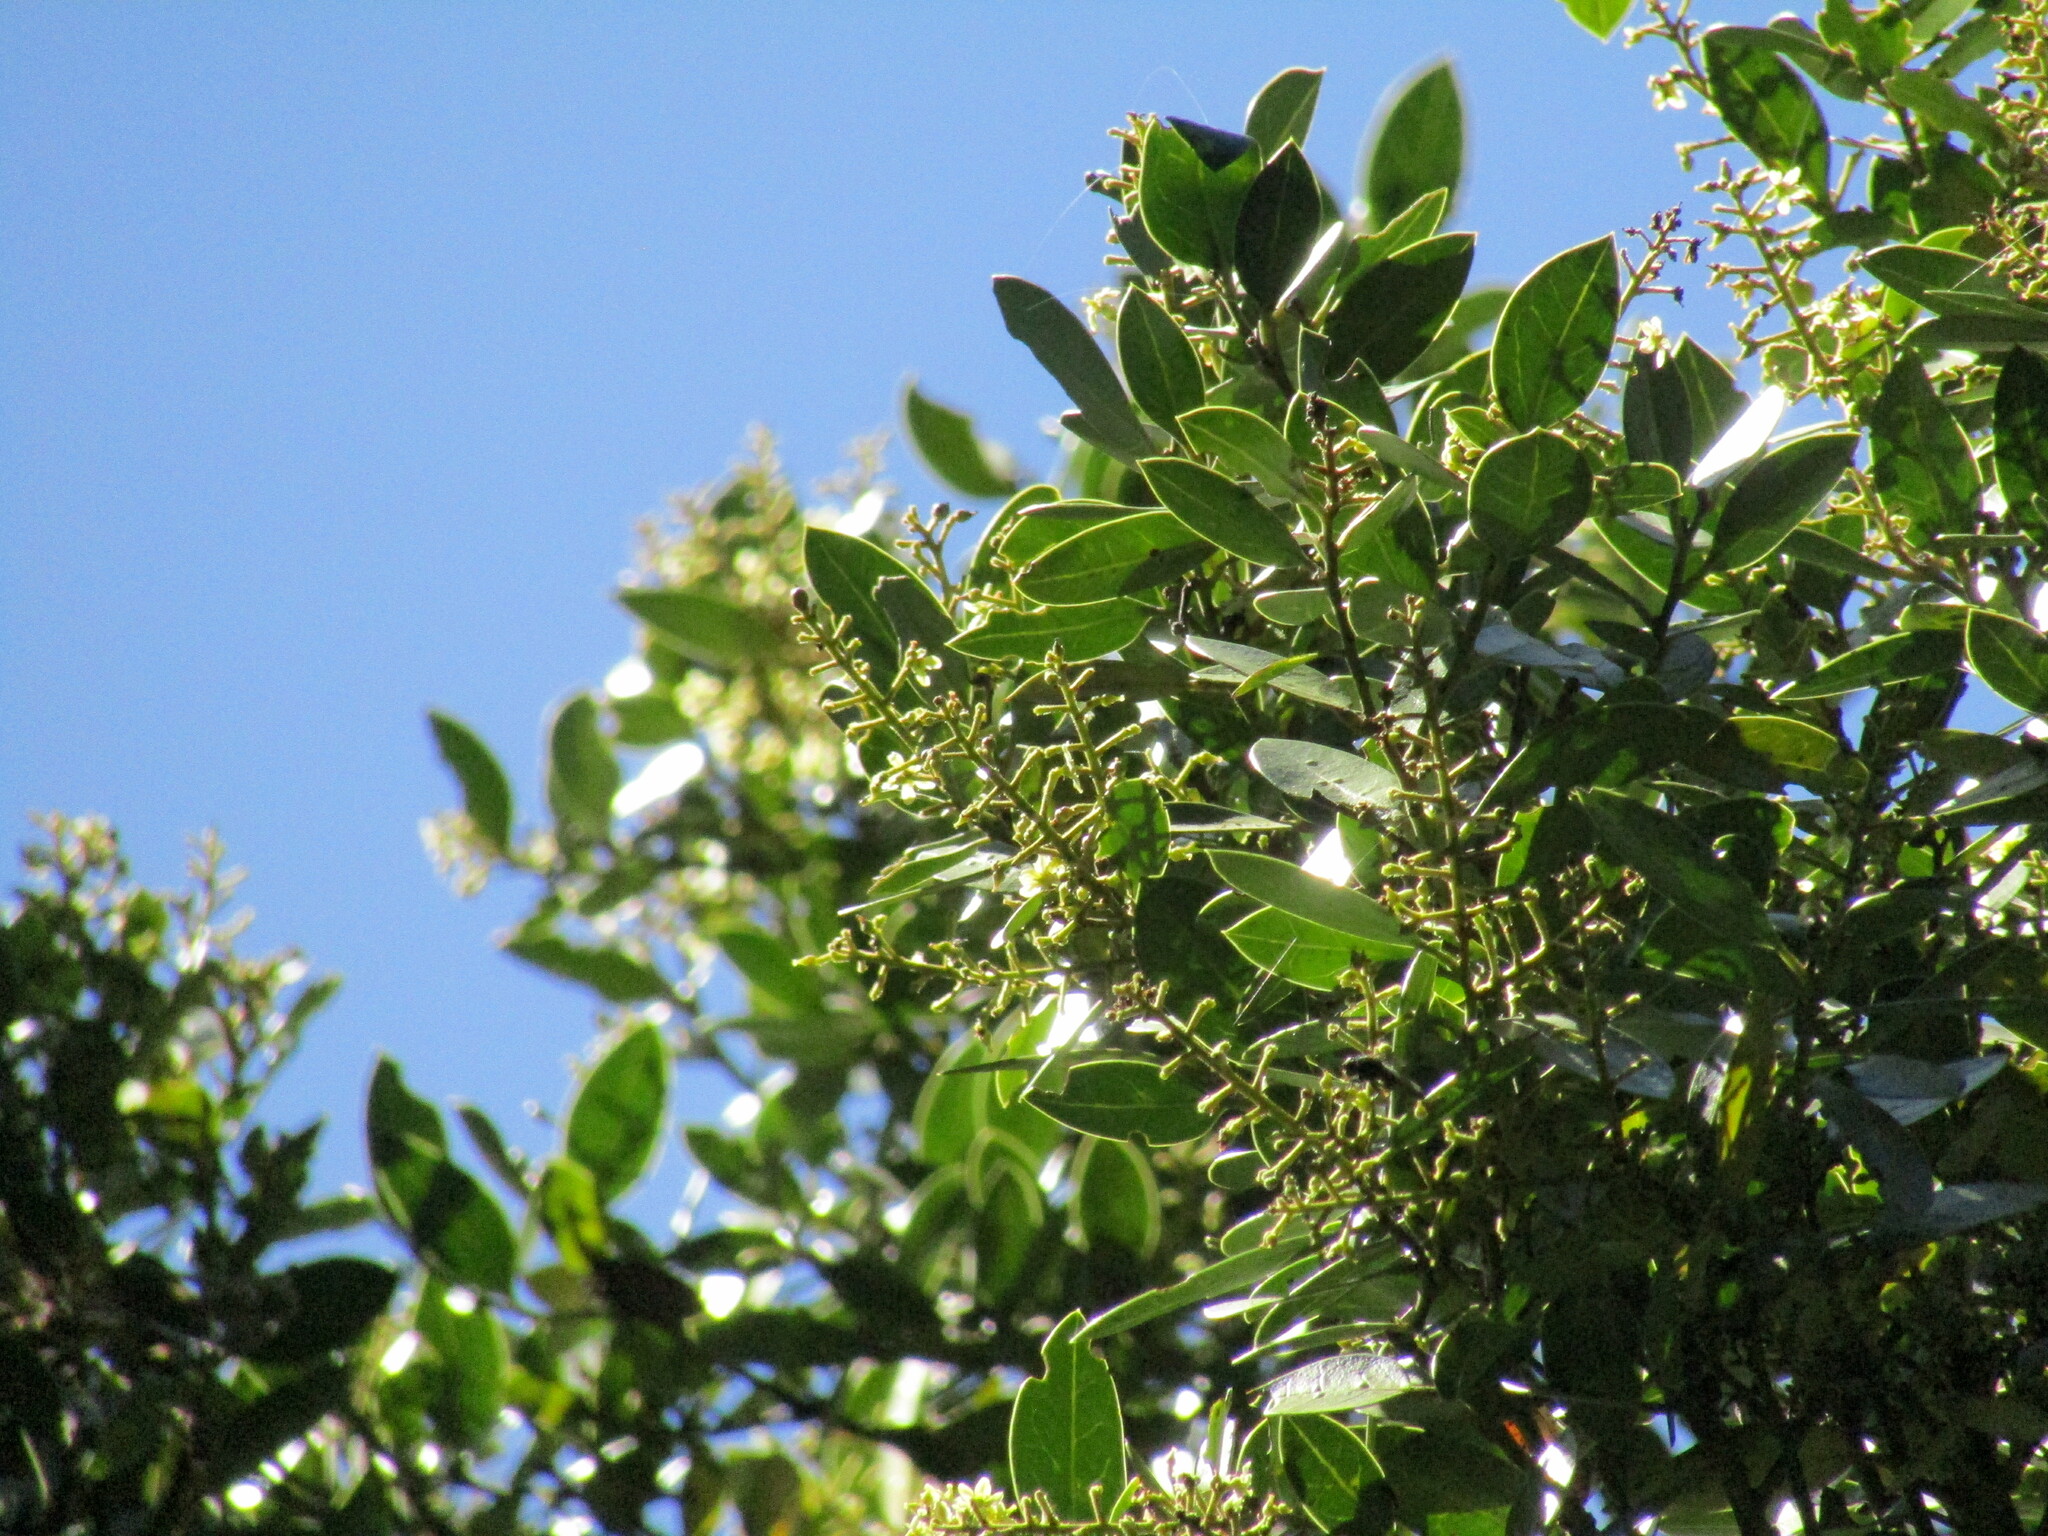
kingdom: Plantae
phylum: Tracheophyta
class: Magnoliopsida
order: Cardiopteridales
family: Cardiopteridaceae
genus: Citronella
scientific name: Citronella mucronata
